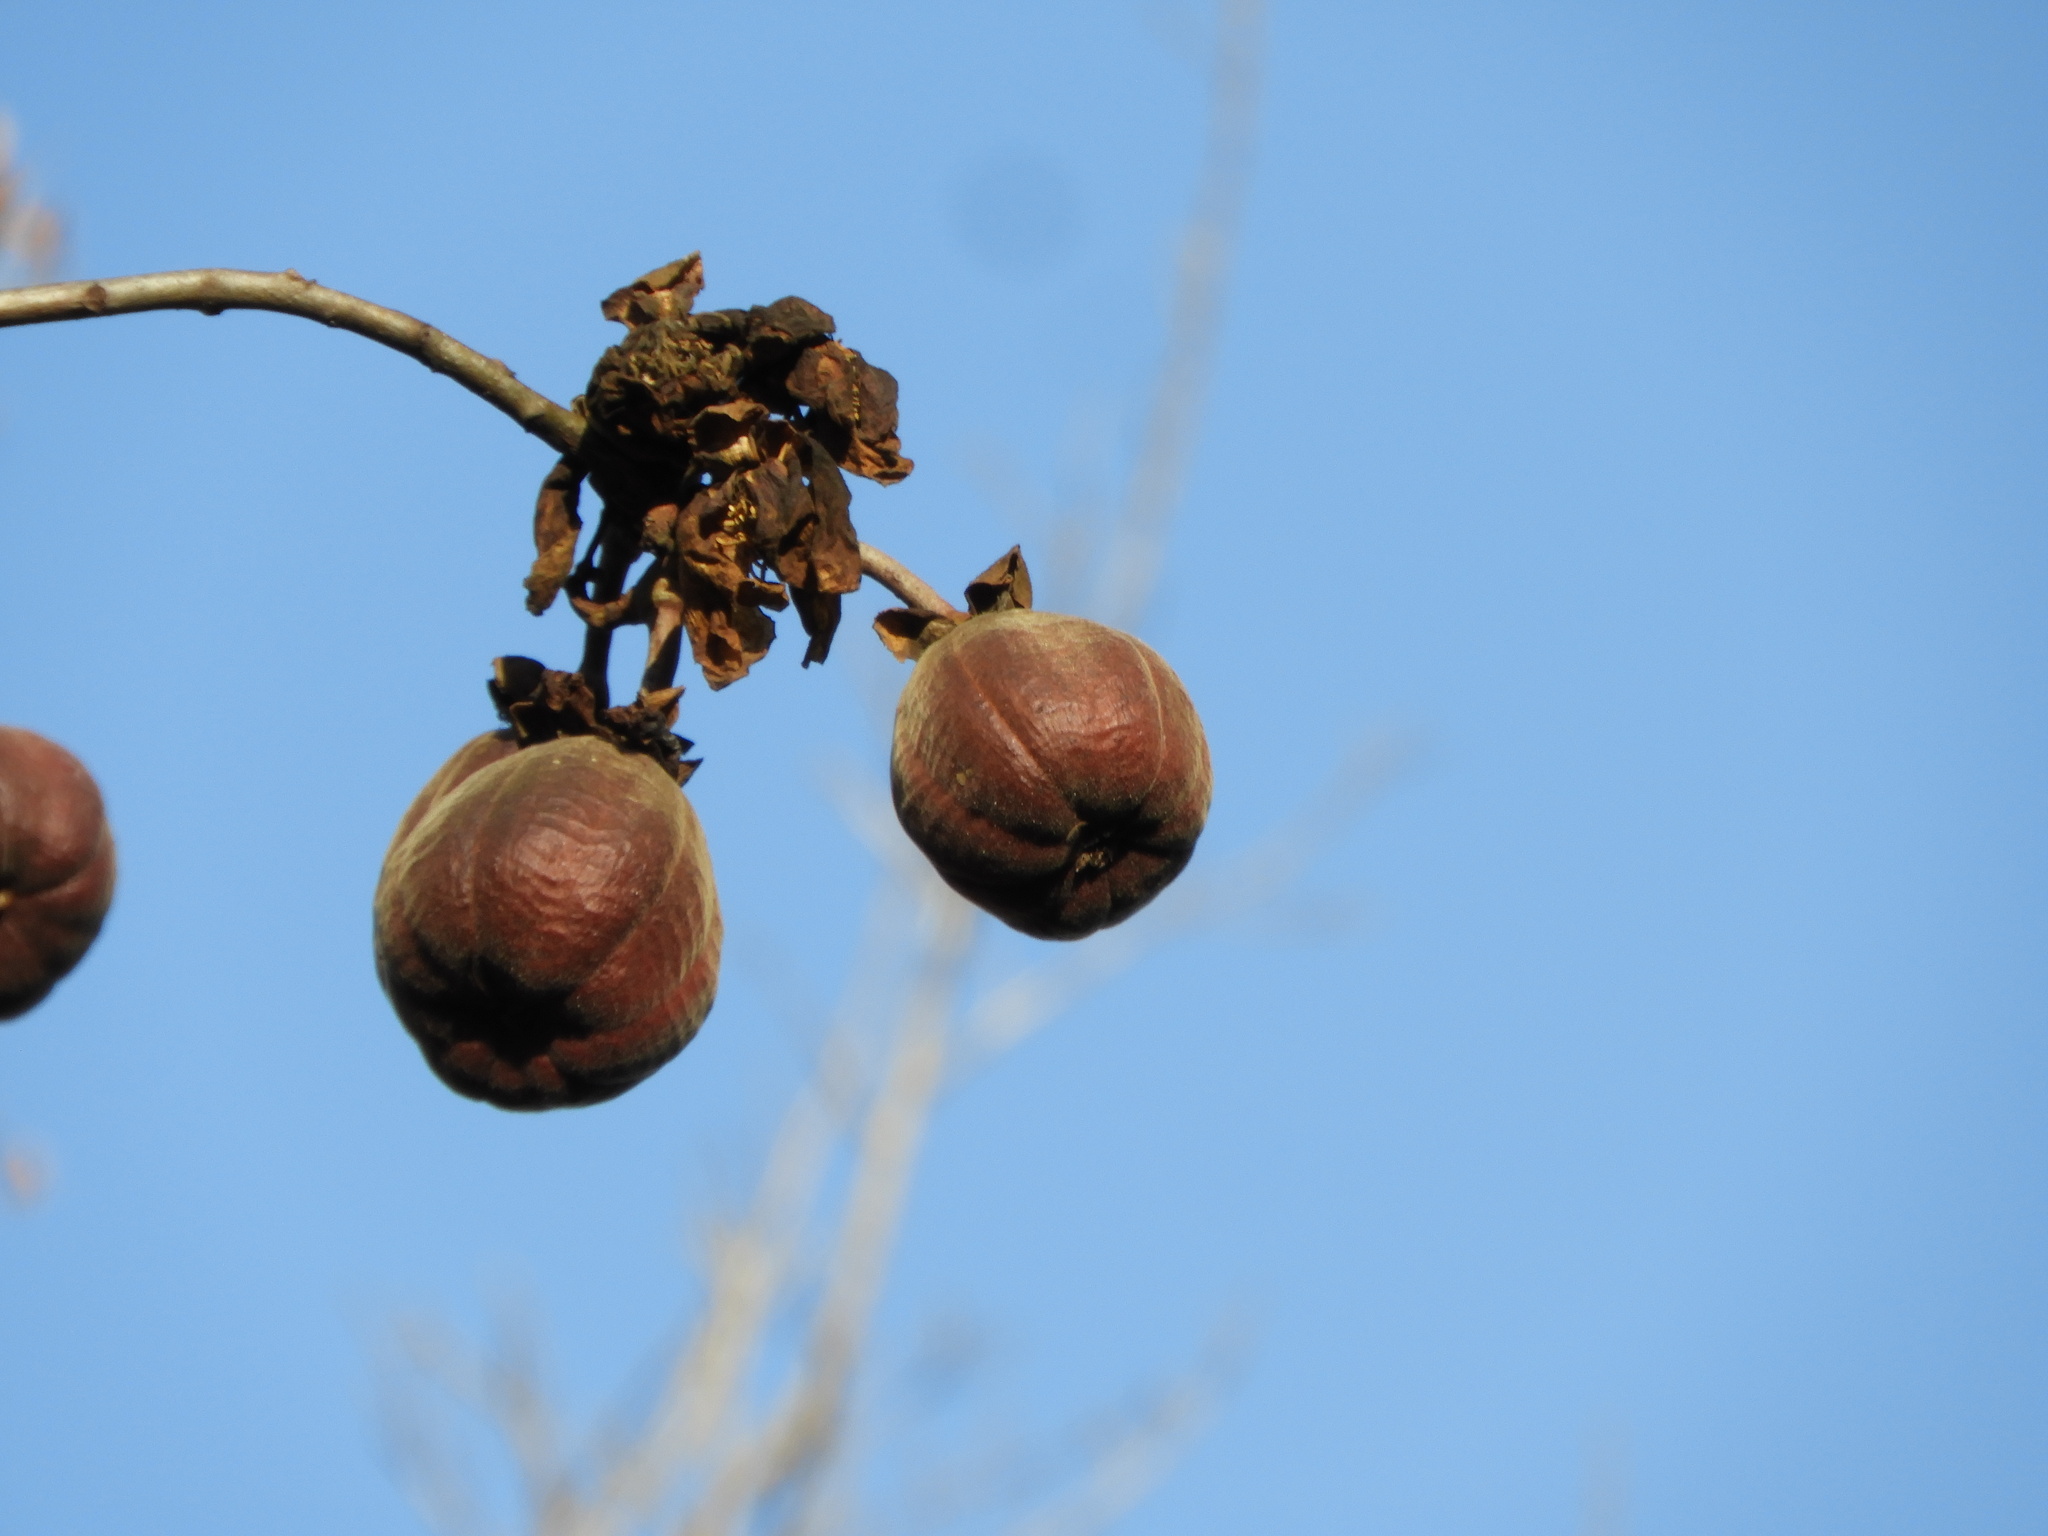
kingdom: Plantae
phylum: Tracheophyta
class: Magnoliopsida
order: Malvales
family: Cochlospermaceae
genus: Cochlospermum
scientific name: Cochlospermum vitifolium
